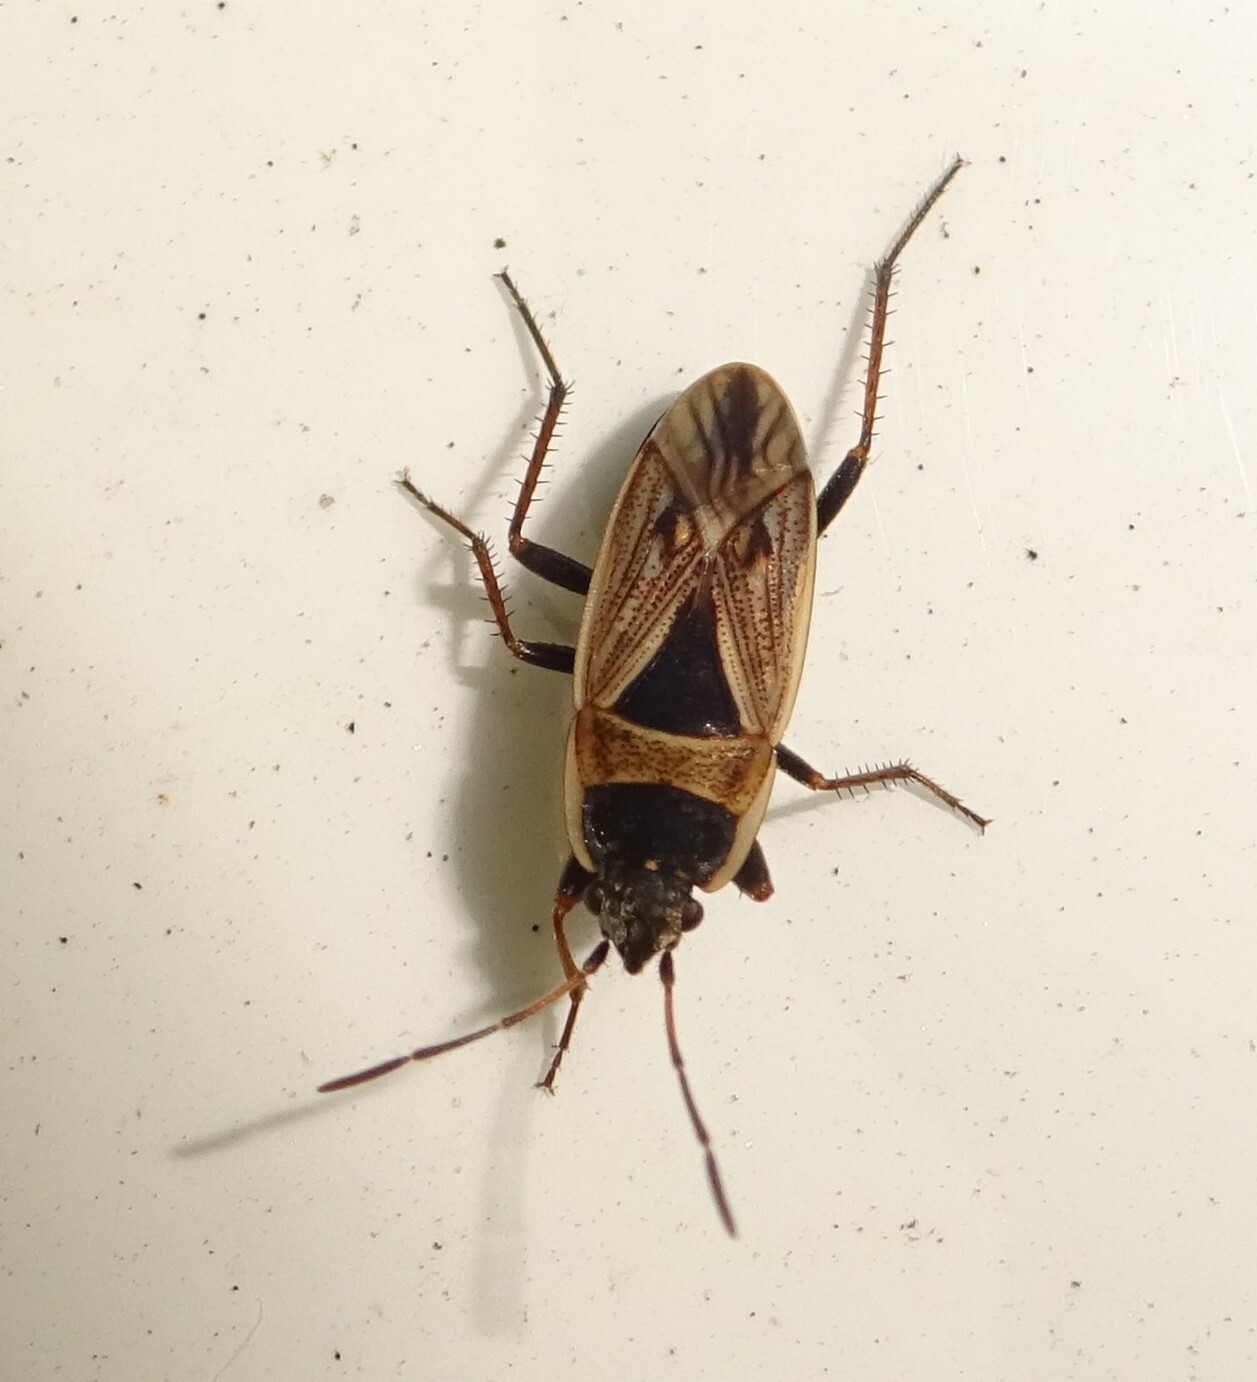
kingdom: Animalia
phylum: Arthropoda
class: Insecta
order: Hemiptera
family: Rhyparochromidae
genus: Xanthochilus
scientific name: Xanthochilus quadratus
